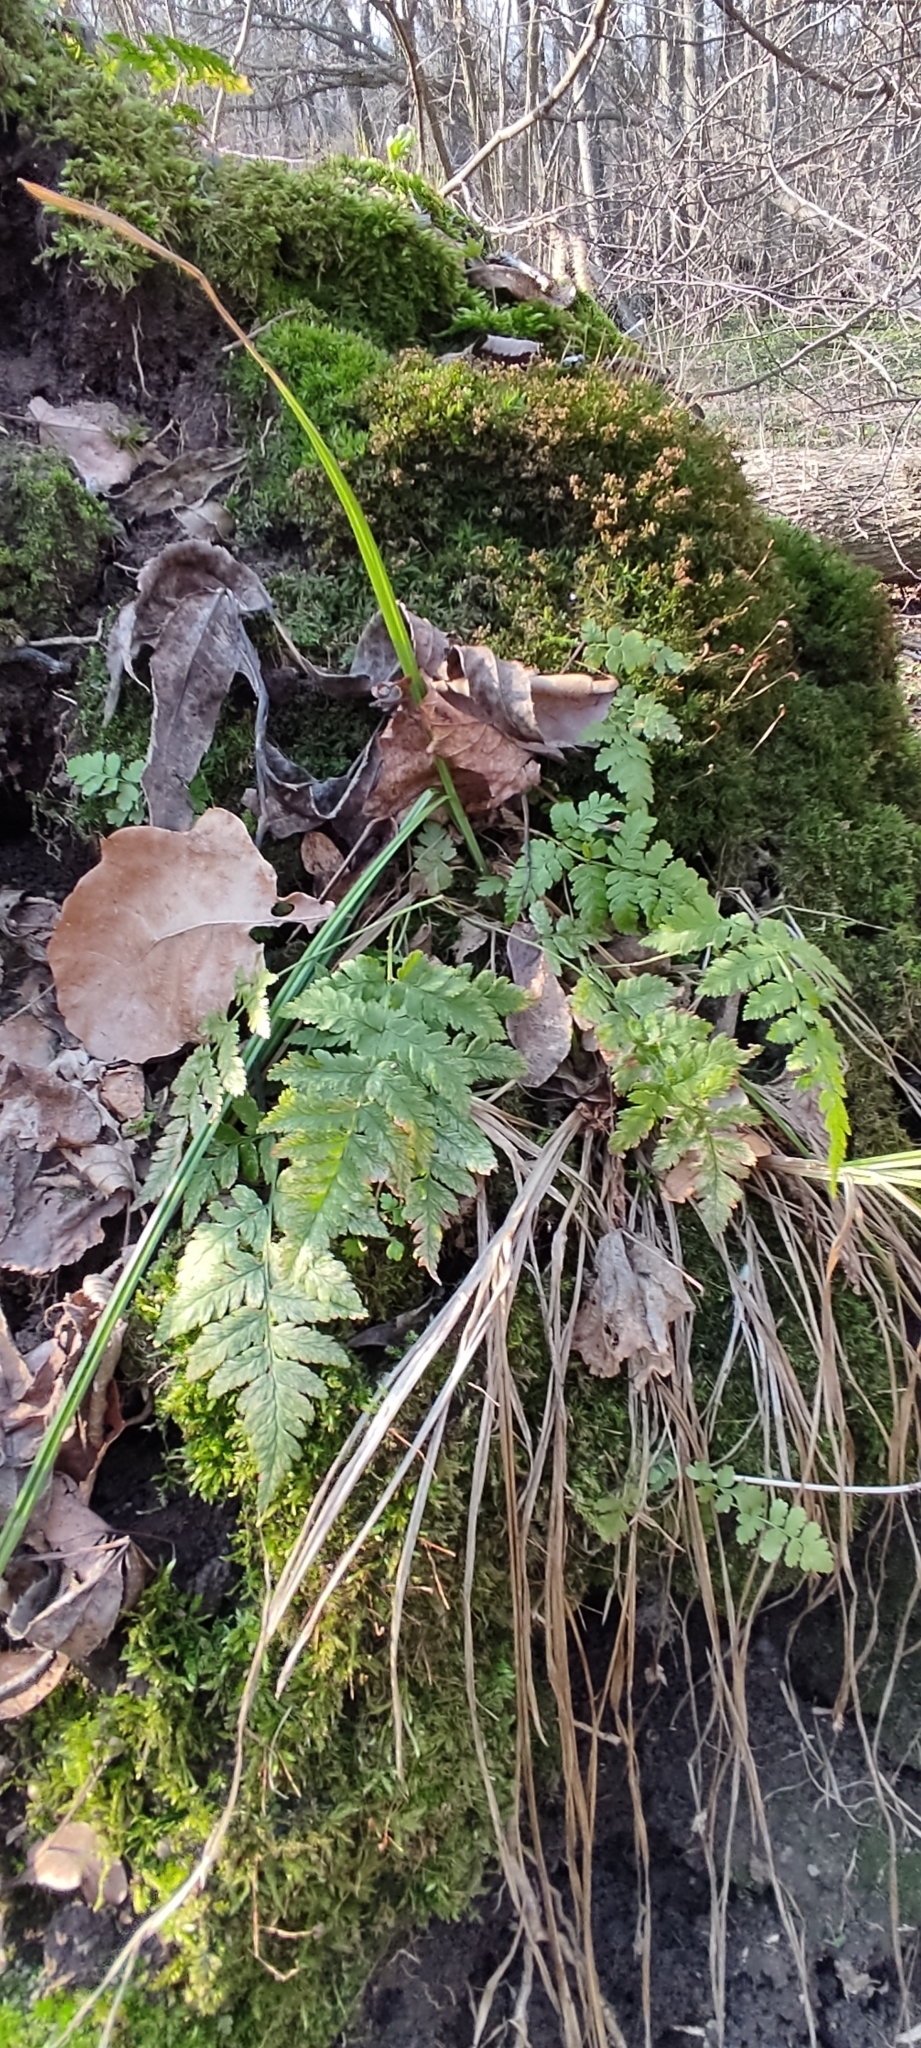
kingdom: Plantae
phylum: Tracheophyta
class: Polypodiopsida
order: Polypodiales
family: Dryopteridaceae
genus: Dryopteris
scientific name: Dryopteris carthusiana
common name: Narrow buckler-fern
